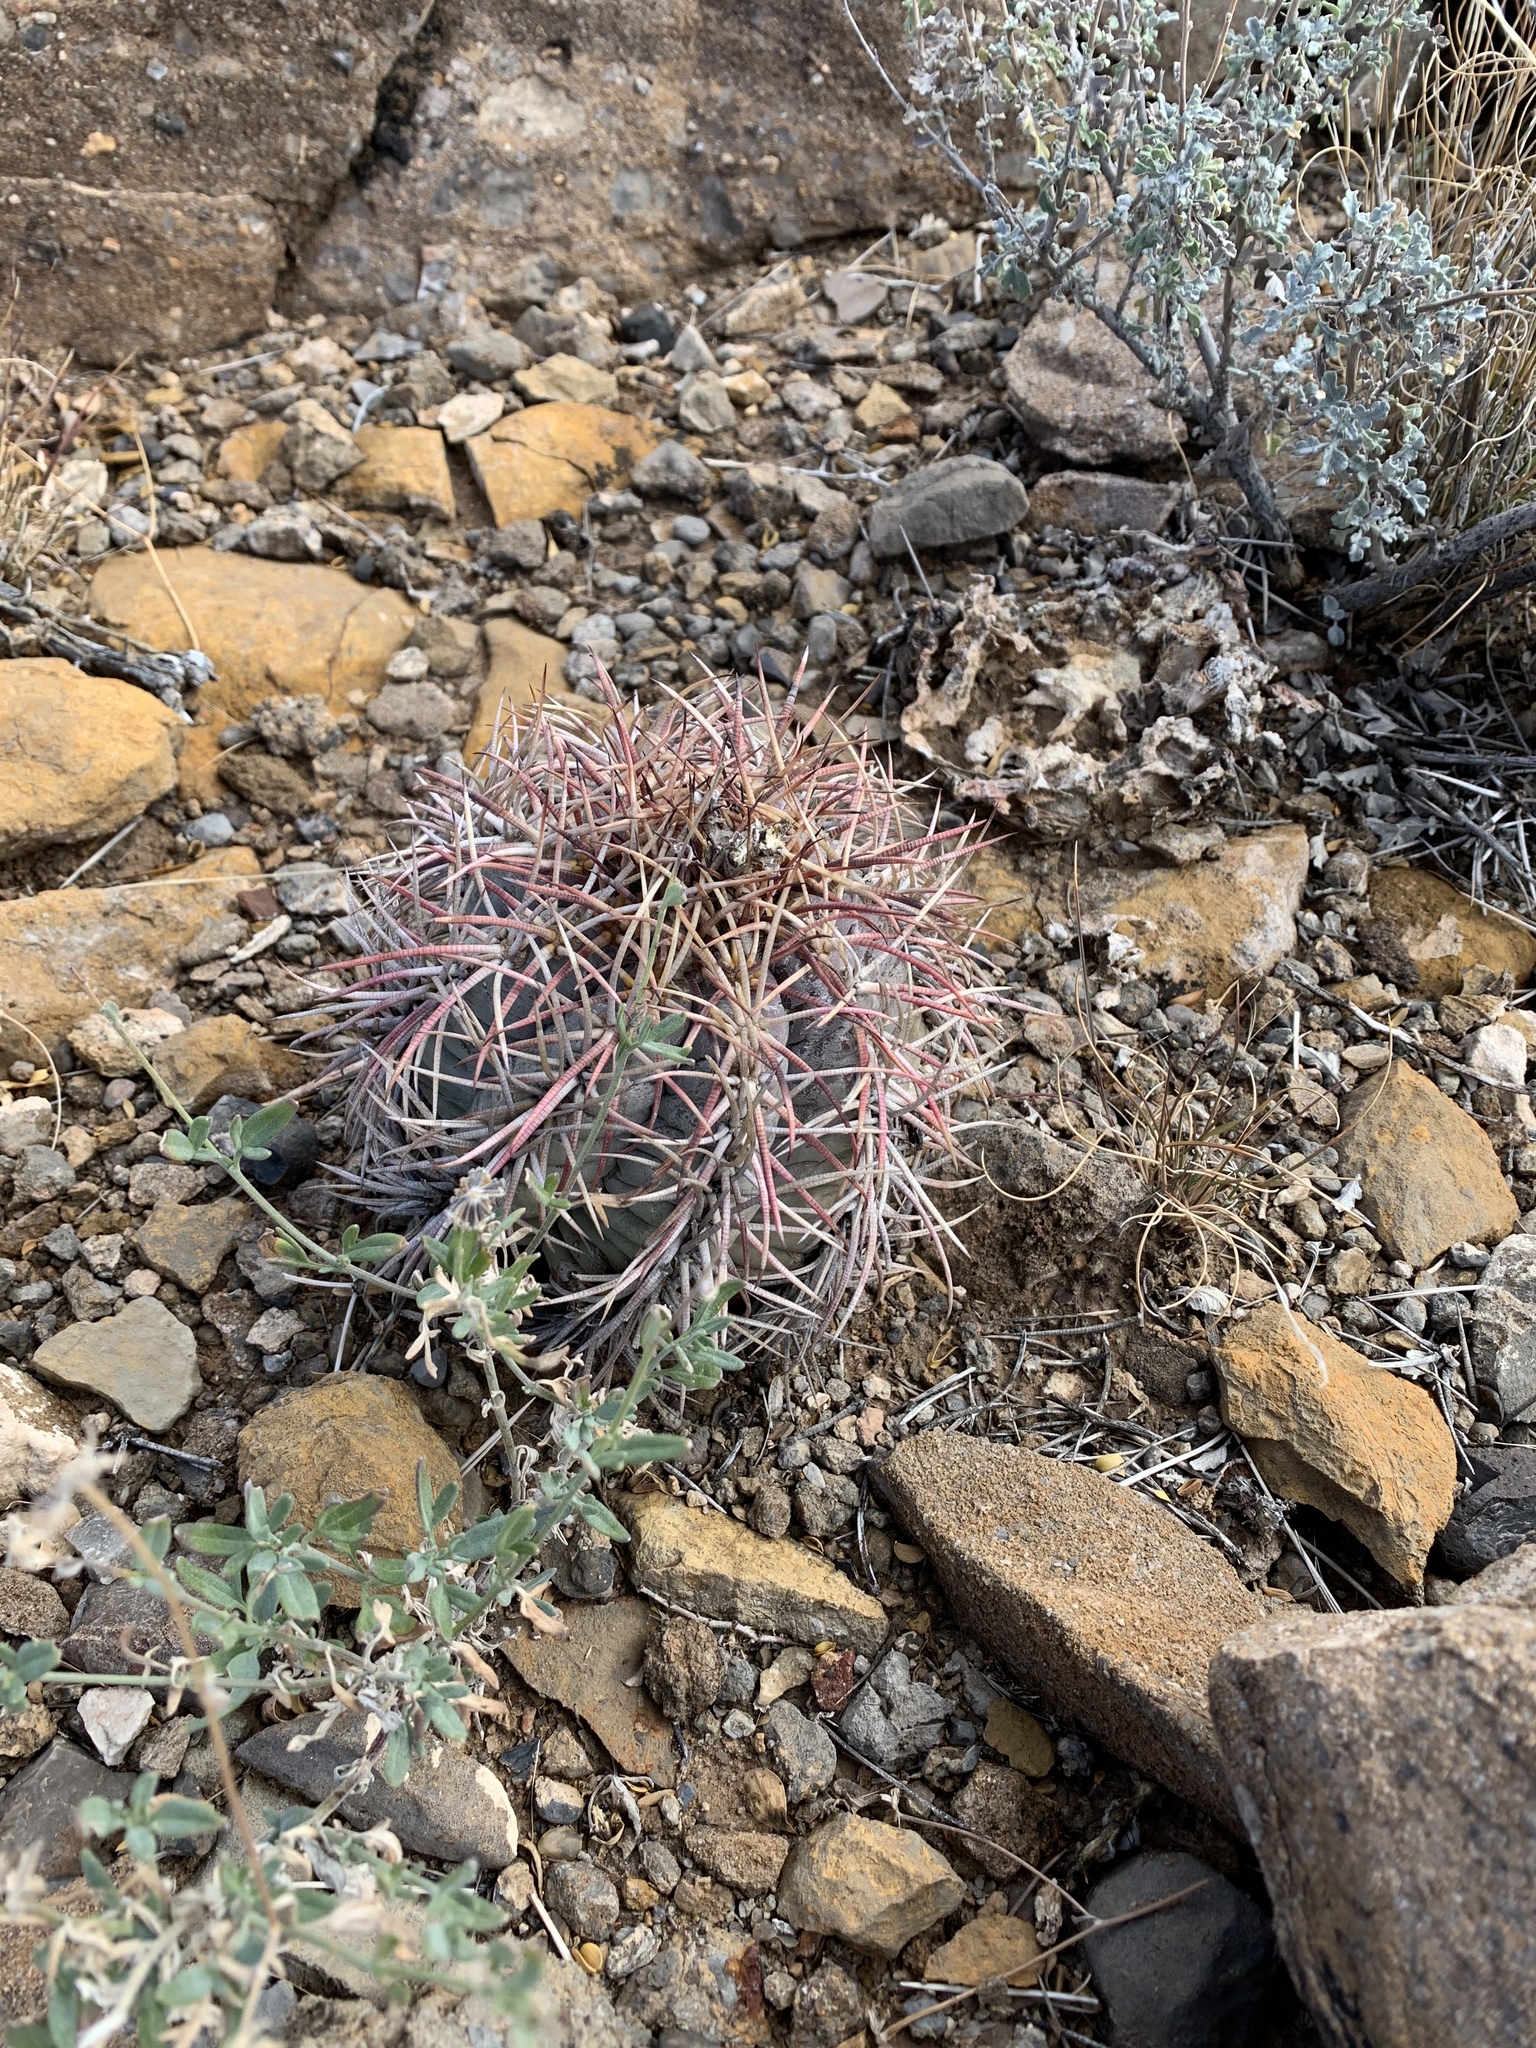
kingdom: Plantae
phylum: Tracheophyta
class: Magnoliopsida
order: Caryophyllales
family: Cactaceae
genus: Echinocactus
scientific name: Echinocactus horizonthalonius
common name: Devilshead
